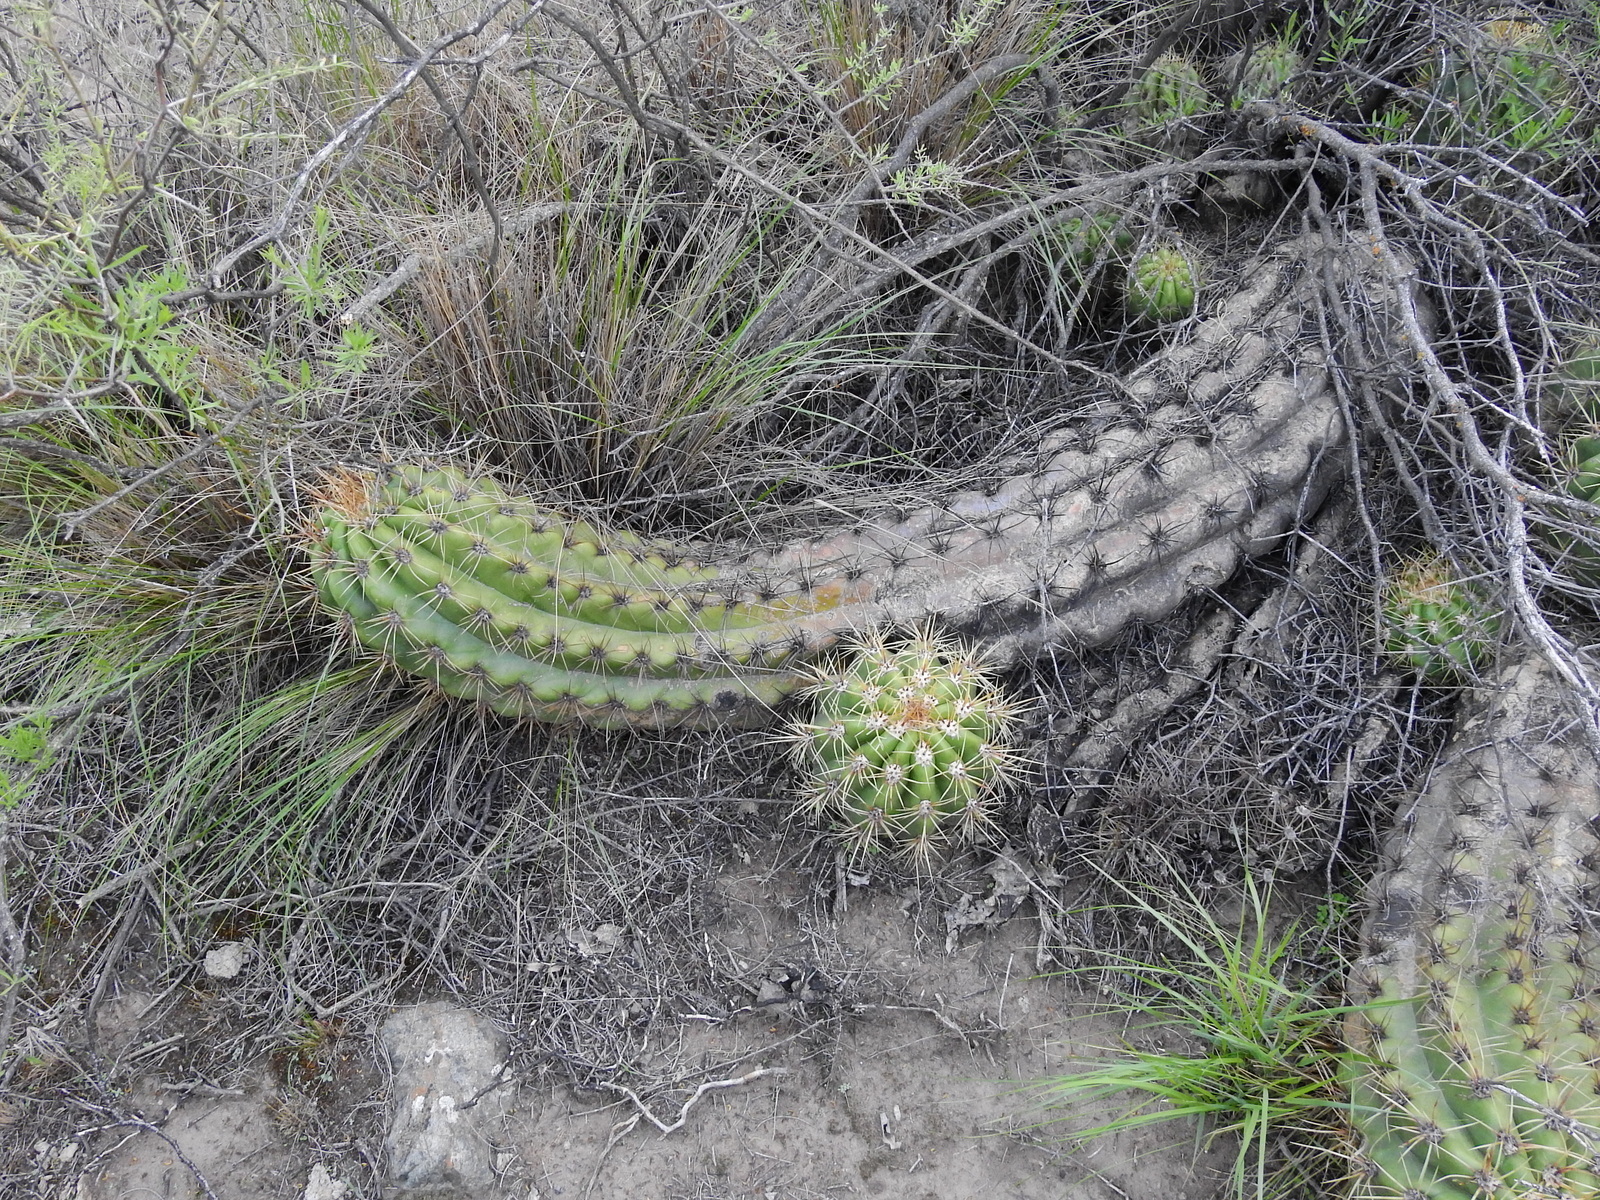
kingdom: Plantae
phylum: Tracheophyta
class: Magnoliopsida
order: Caryophyllales
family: Cactaceae
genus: Soehrensia
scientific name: Soehrensia candicans
